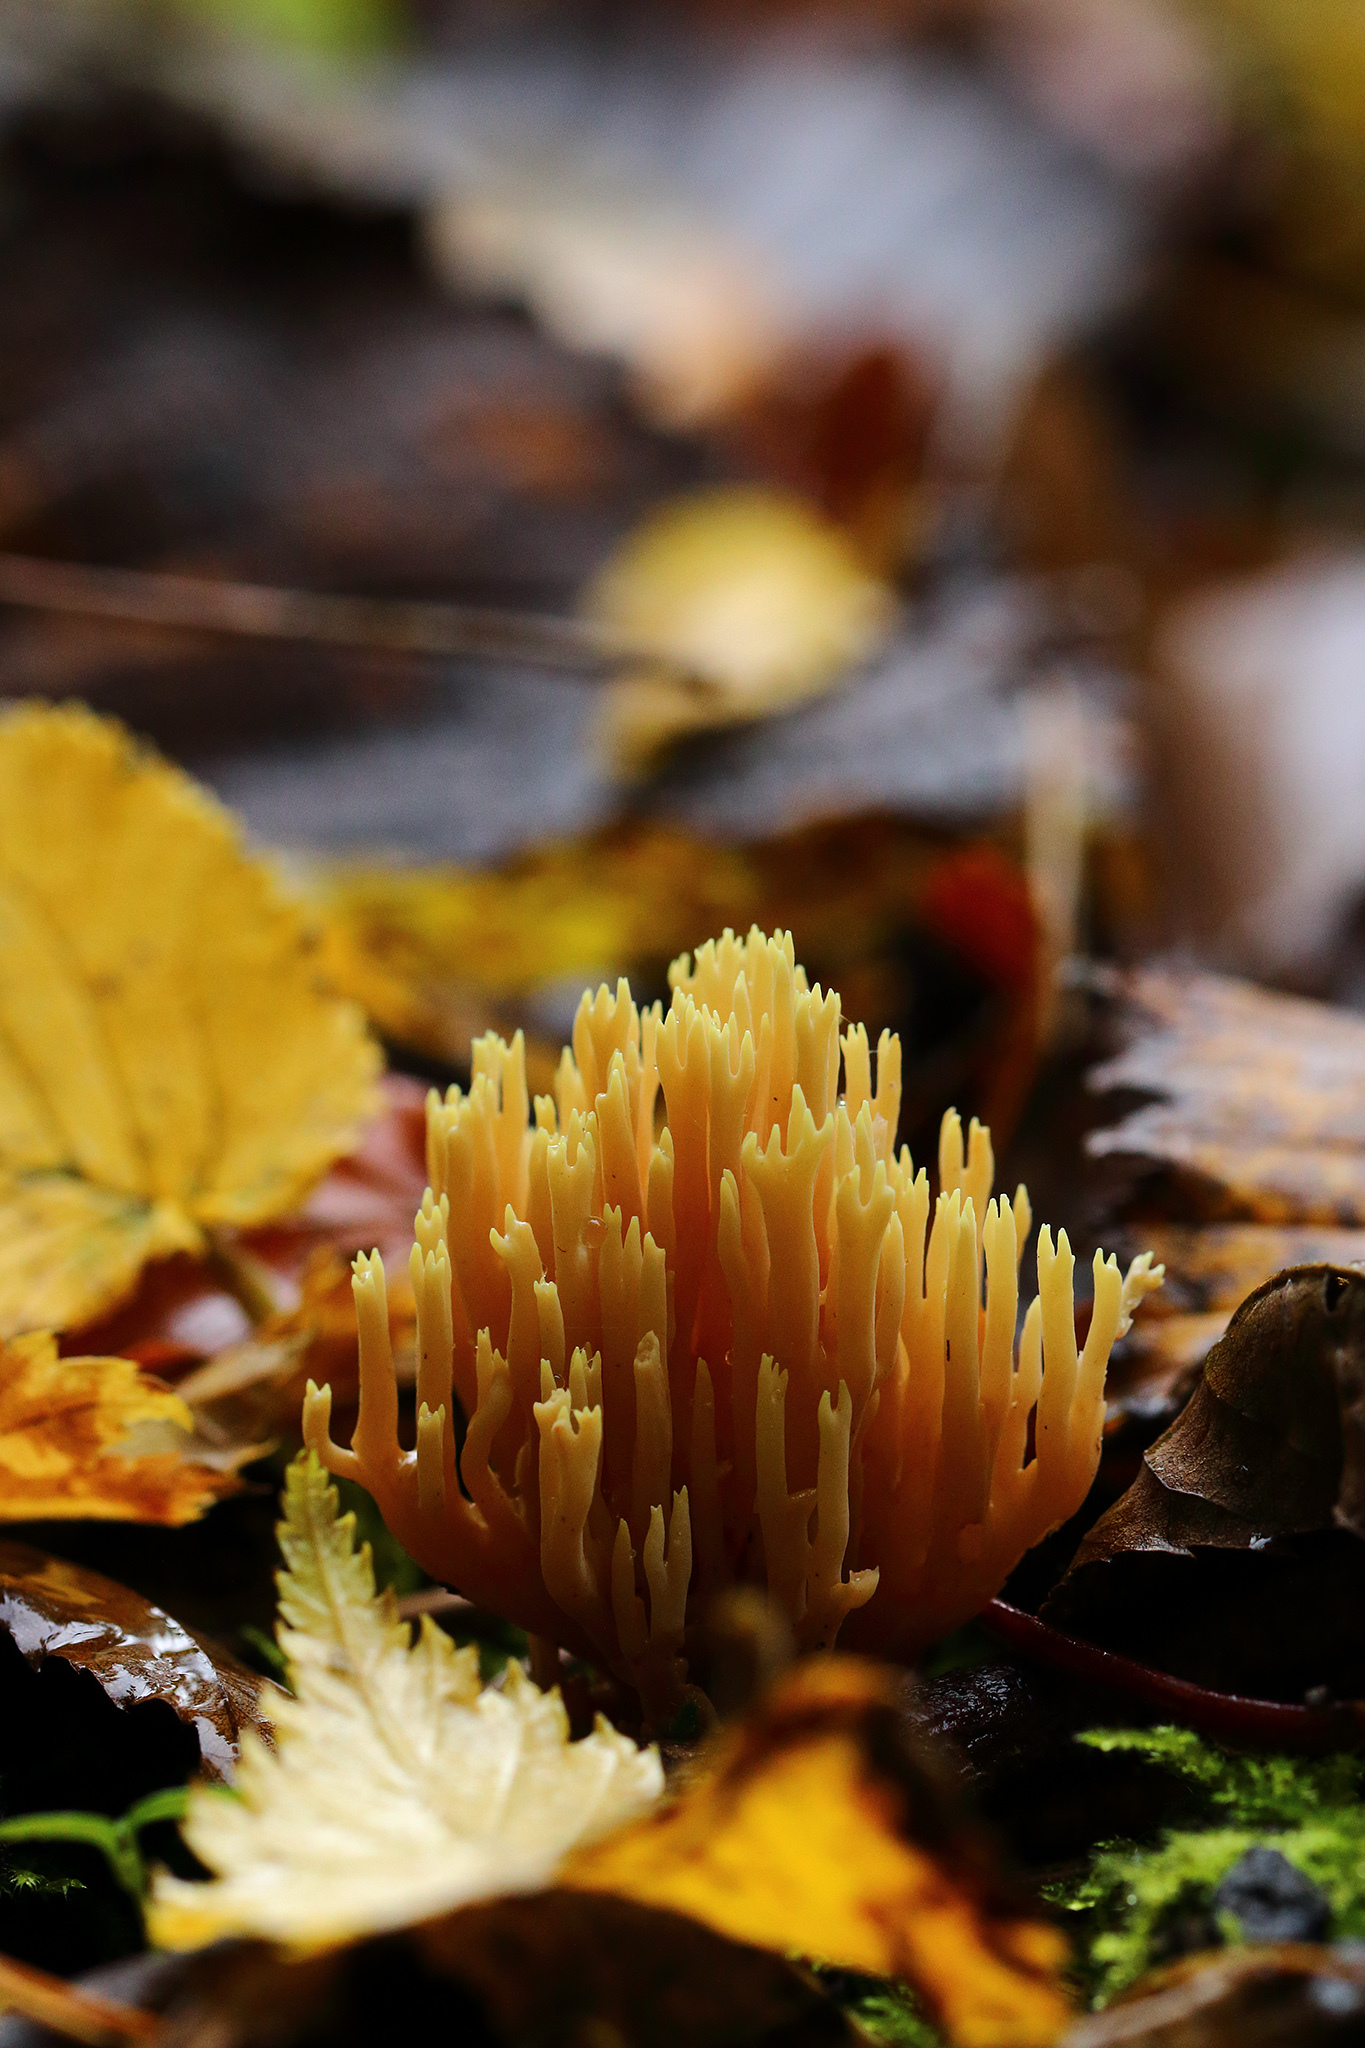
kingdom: Fungi
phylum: Basidiomycota
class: Agaricomycetes
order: Gomphales
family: Gomphaceae
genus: Ramaria
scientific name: Ramaria stricta
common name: Upright coral
